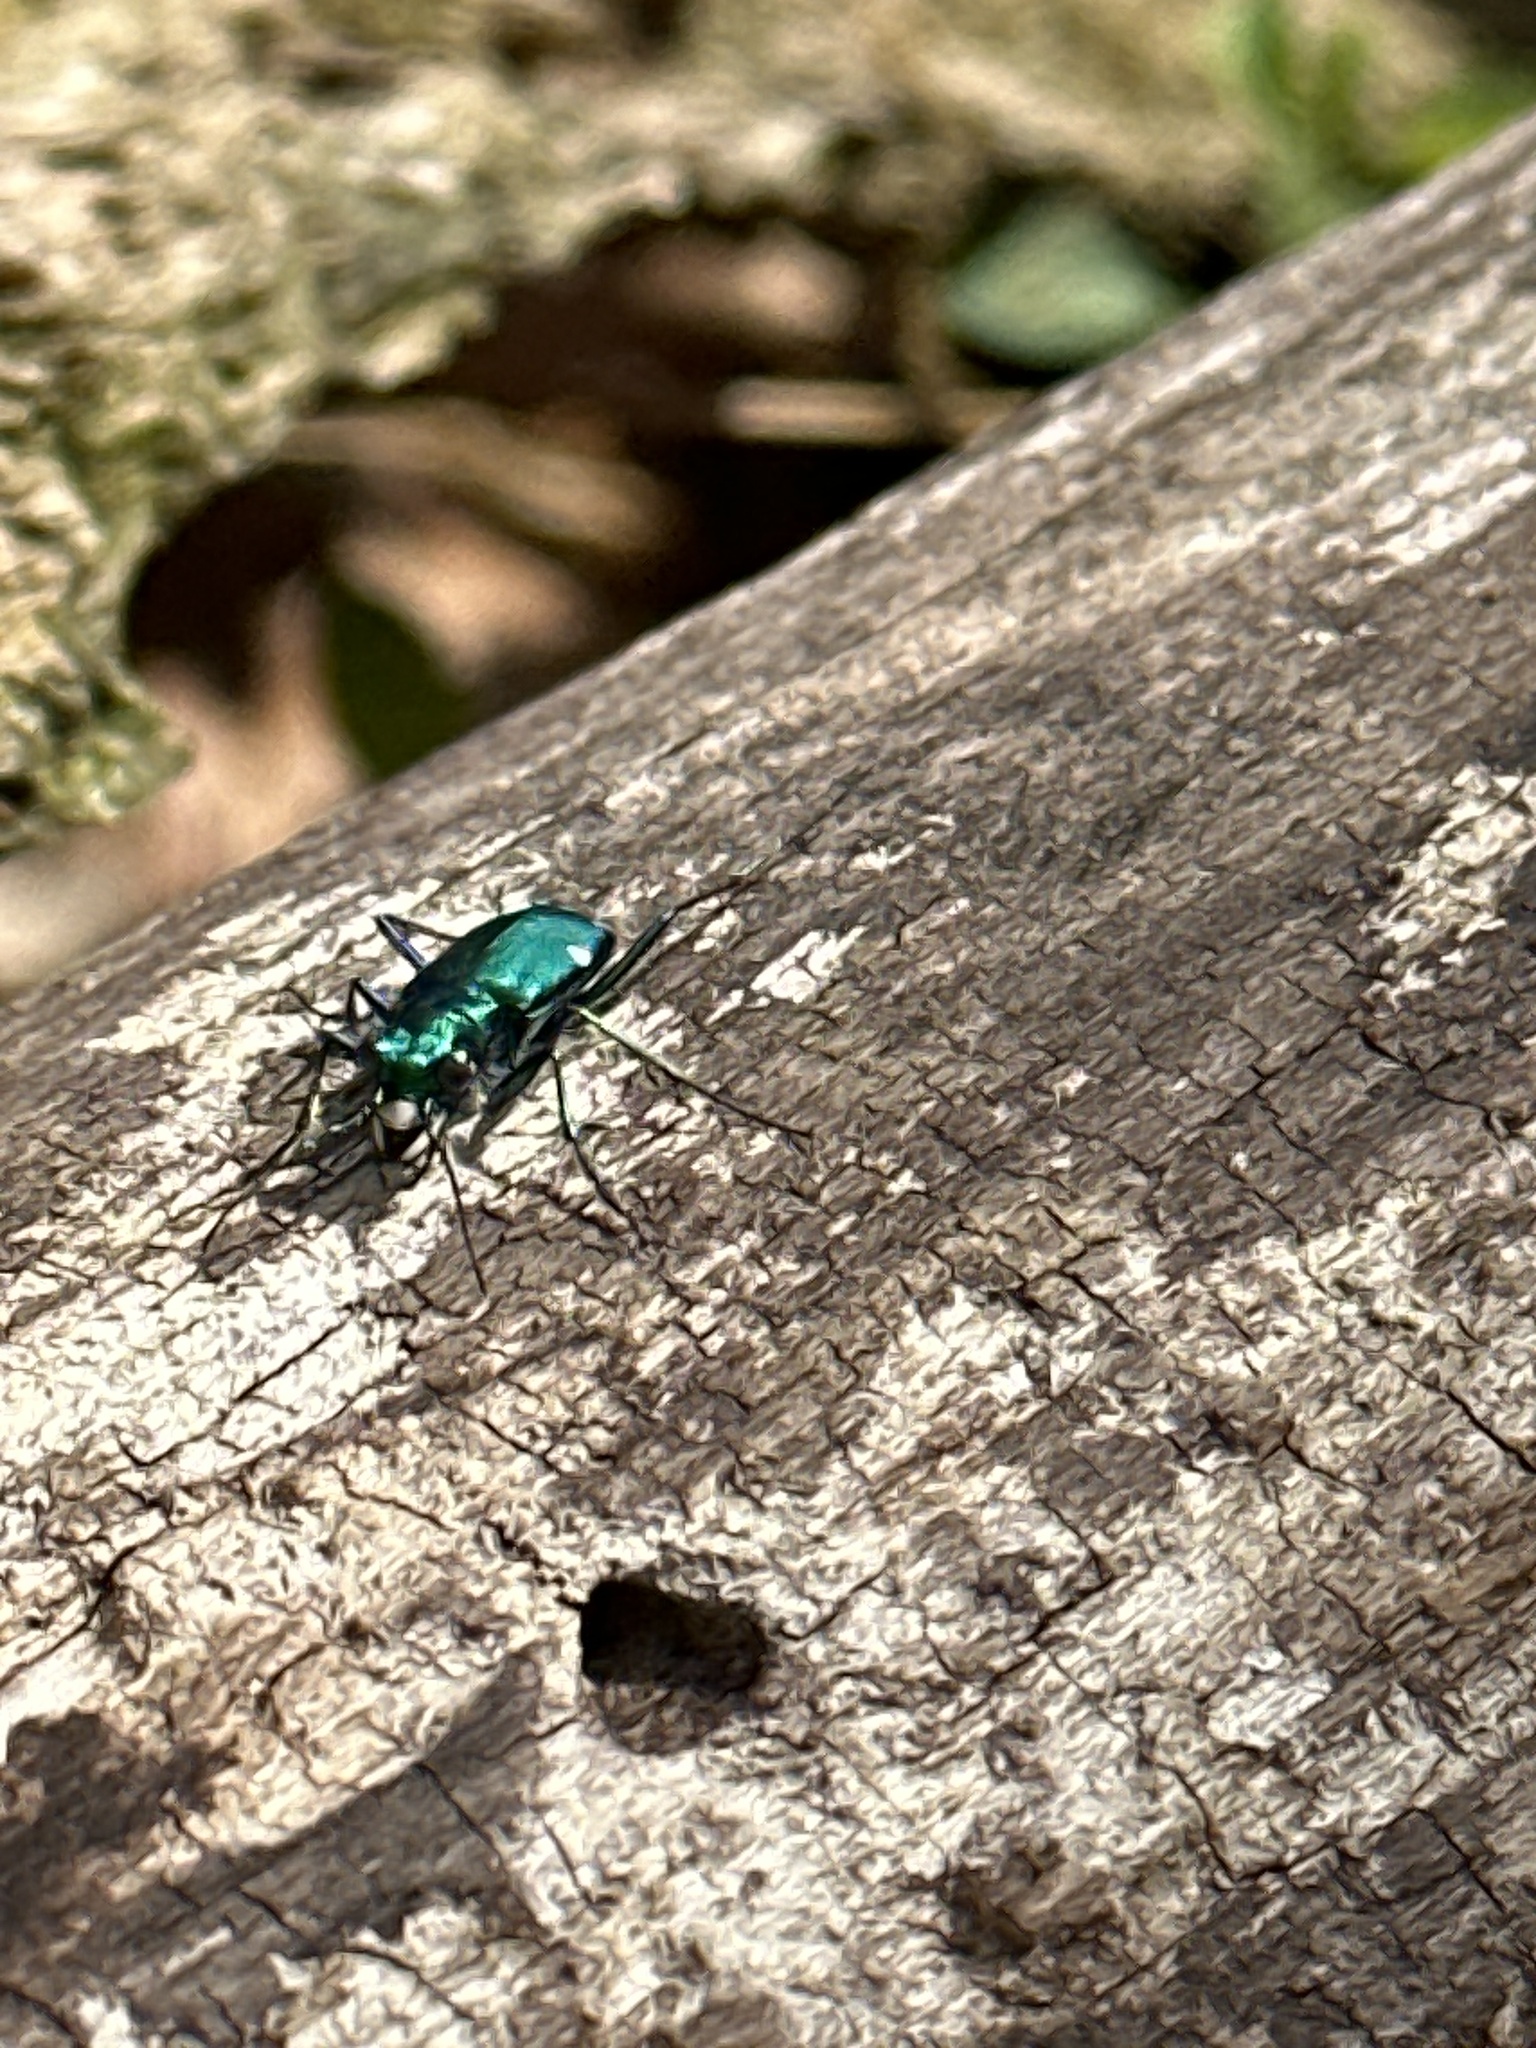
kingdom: Animalia
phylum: Arthropoda
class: Insecta
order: Coleoptera
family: Carabidae
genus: Cicindela
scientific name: Cicindela sexguttata
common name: Six-spotted tiger beetle
